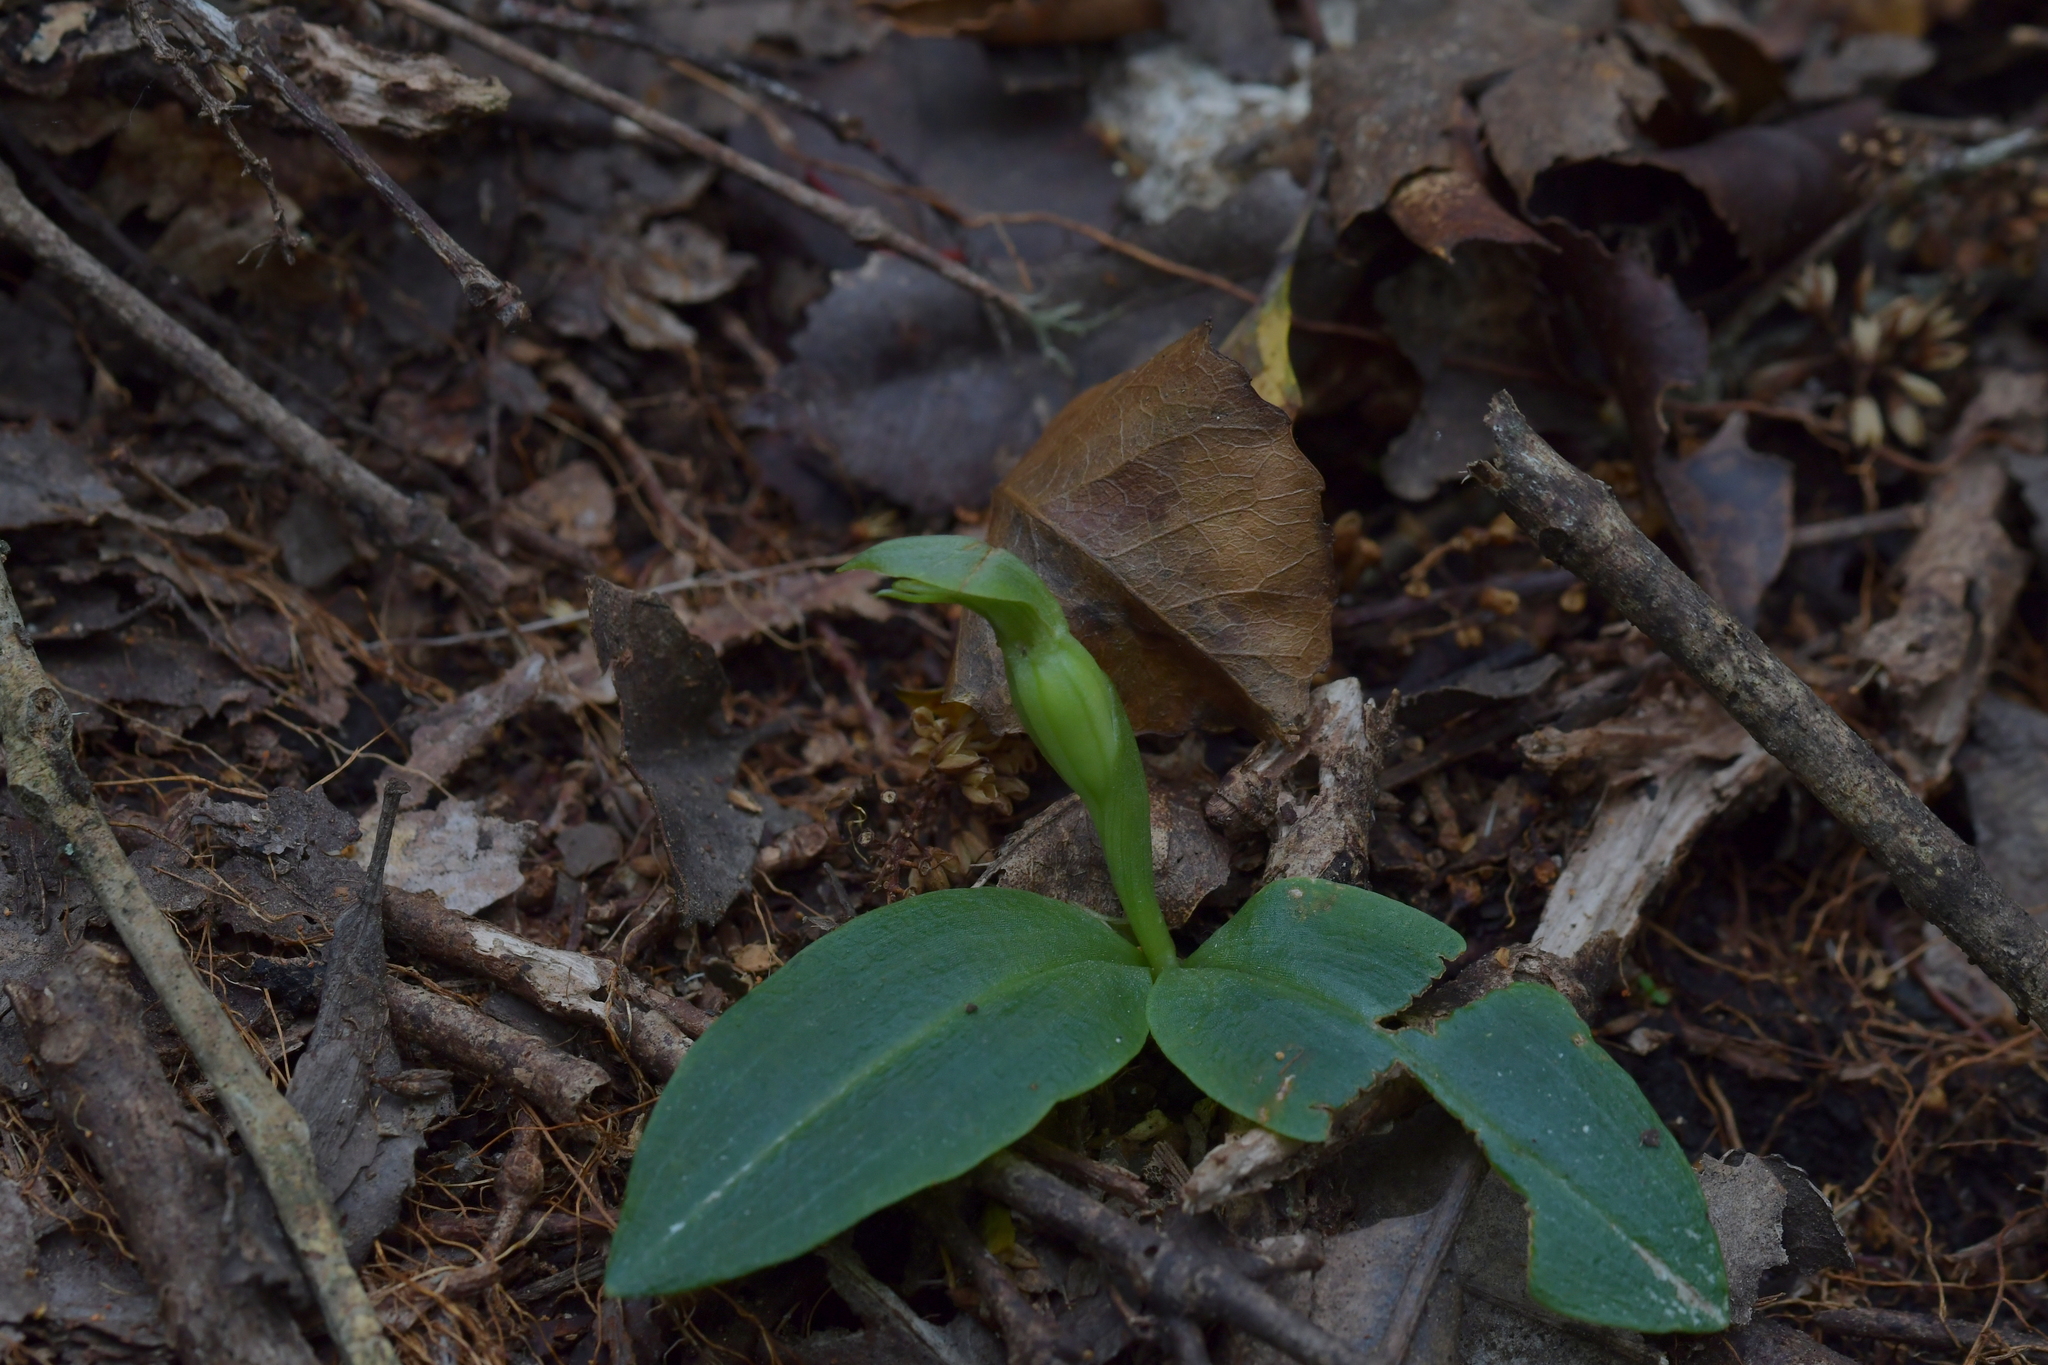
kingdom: Plantae
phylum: Tracheophyta
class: Liliopsida
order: Asparagales
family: Orchidaceae
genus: Chiloglottis
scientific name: Chiloglottis cornuta
